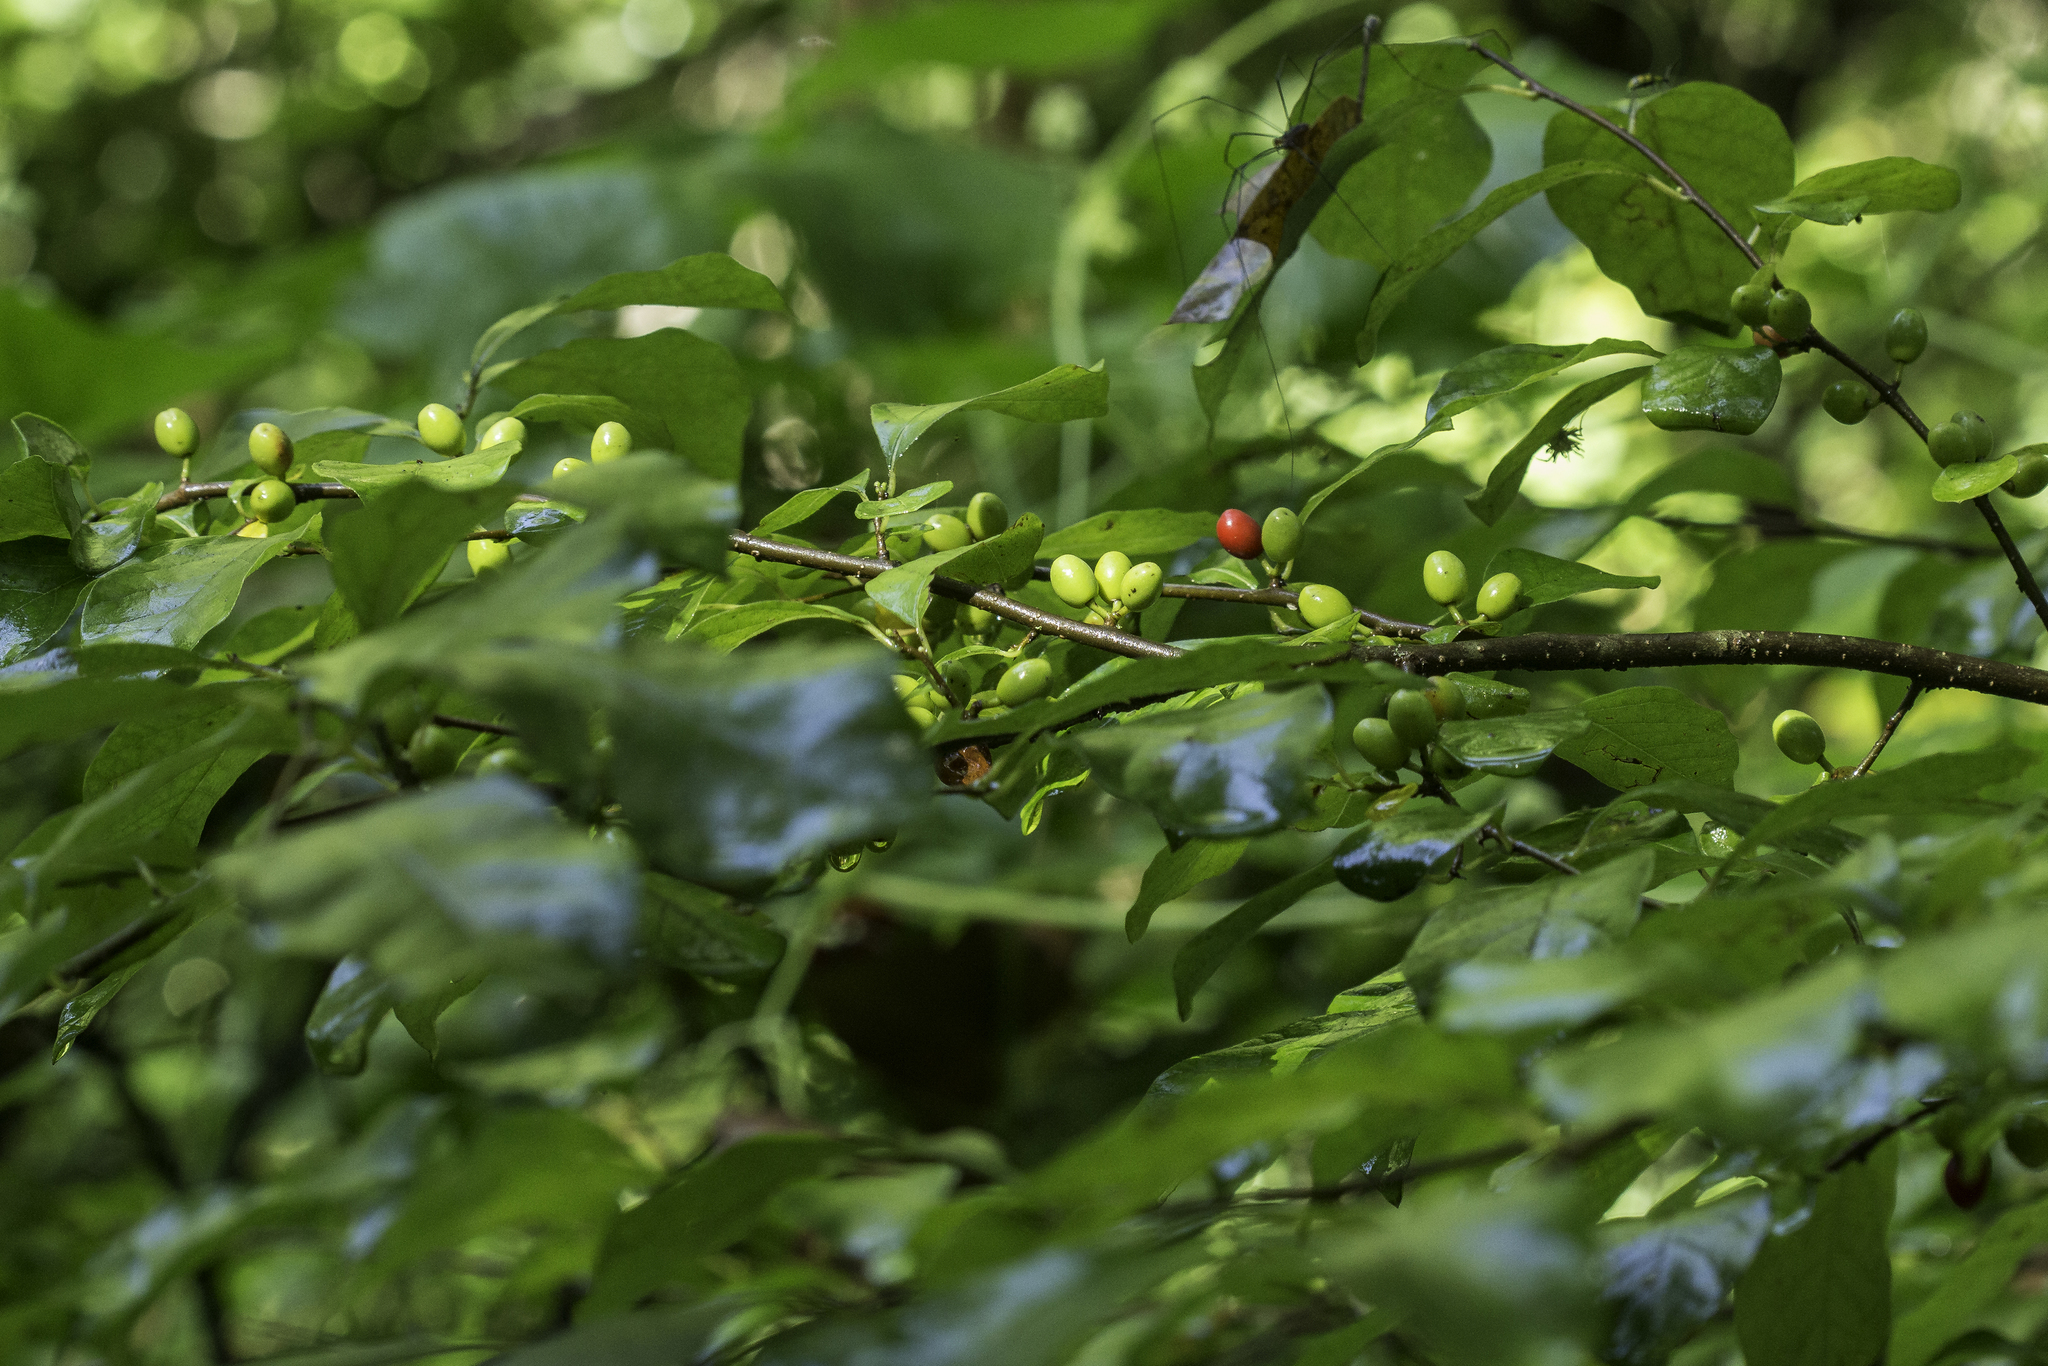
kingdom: Plantae
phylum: Tracheophyta
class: Magnoliopsida
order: Laurales
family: Lauraceae
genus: Lindera
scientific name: Lindera benzoin
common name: Spicebush
